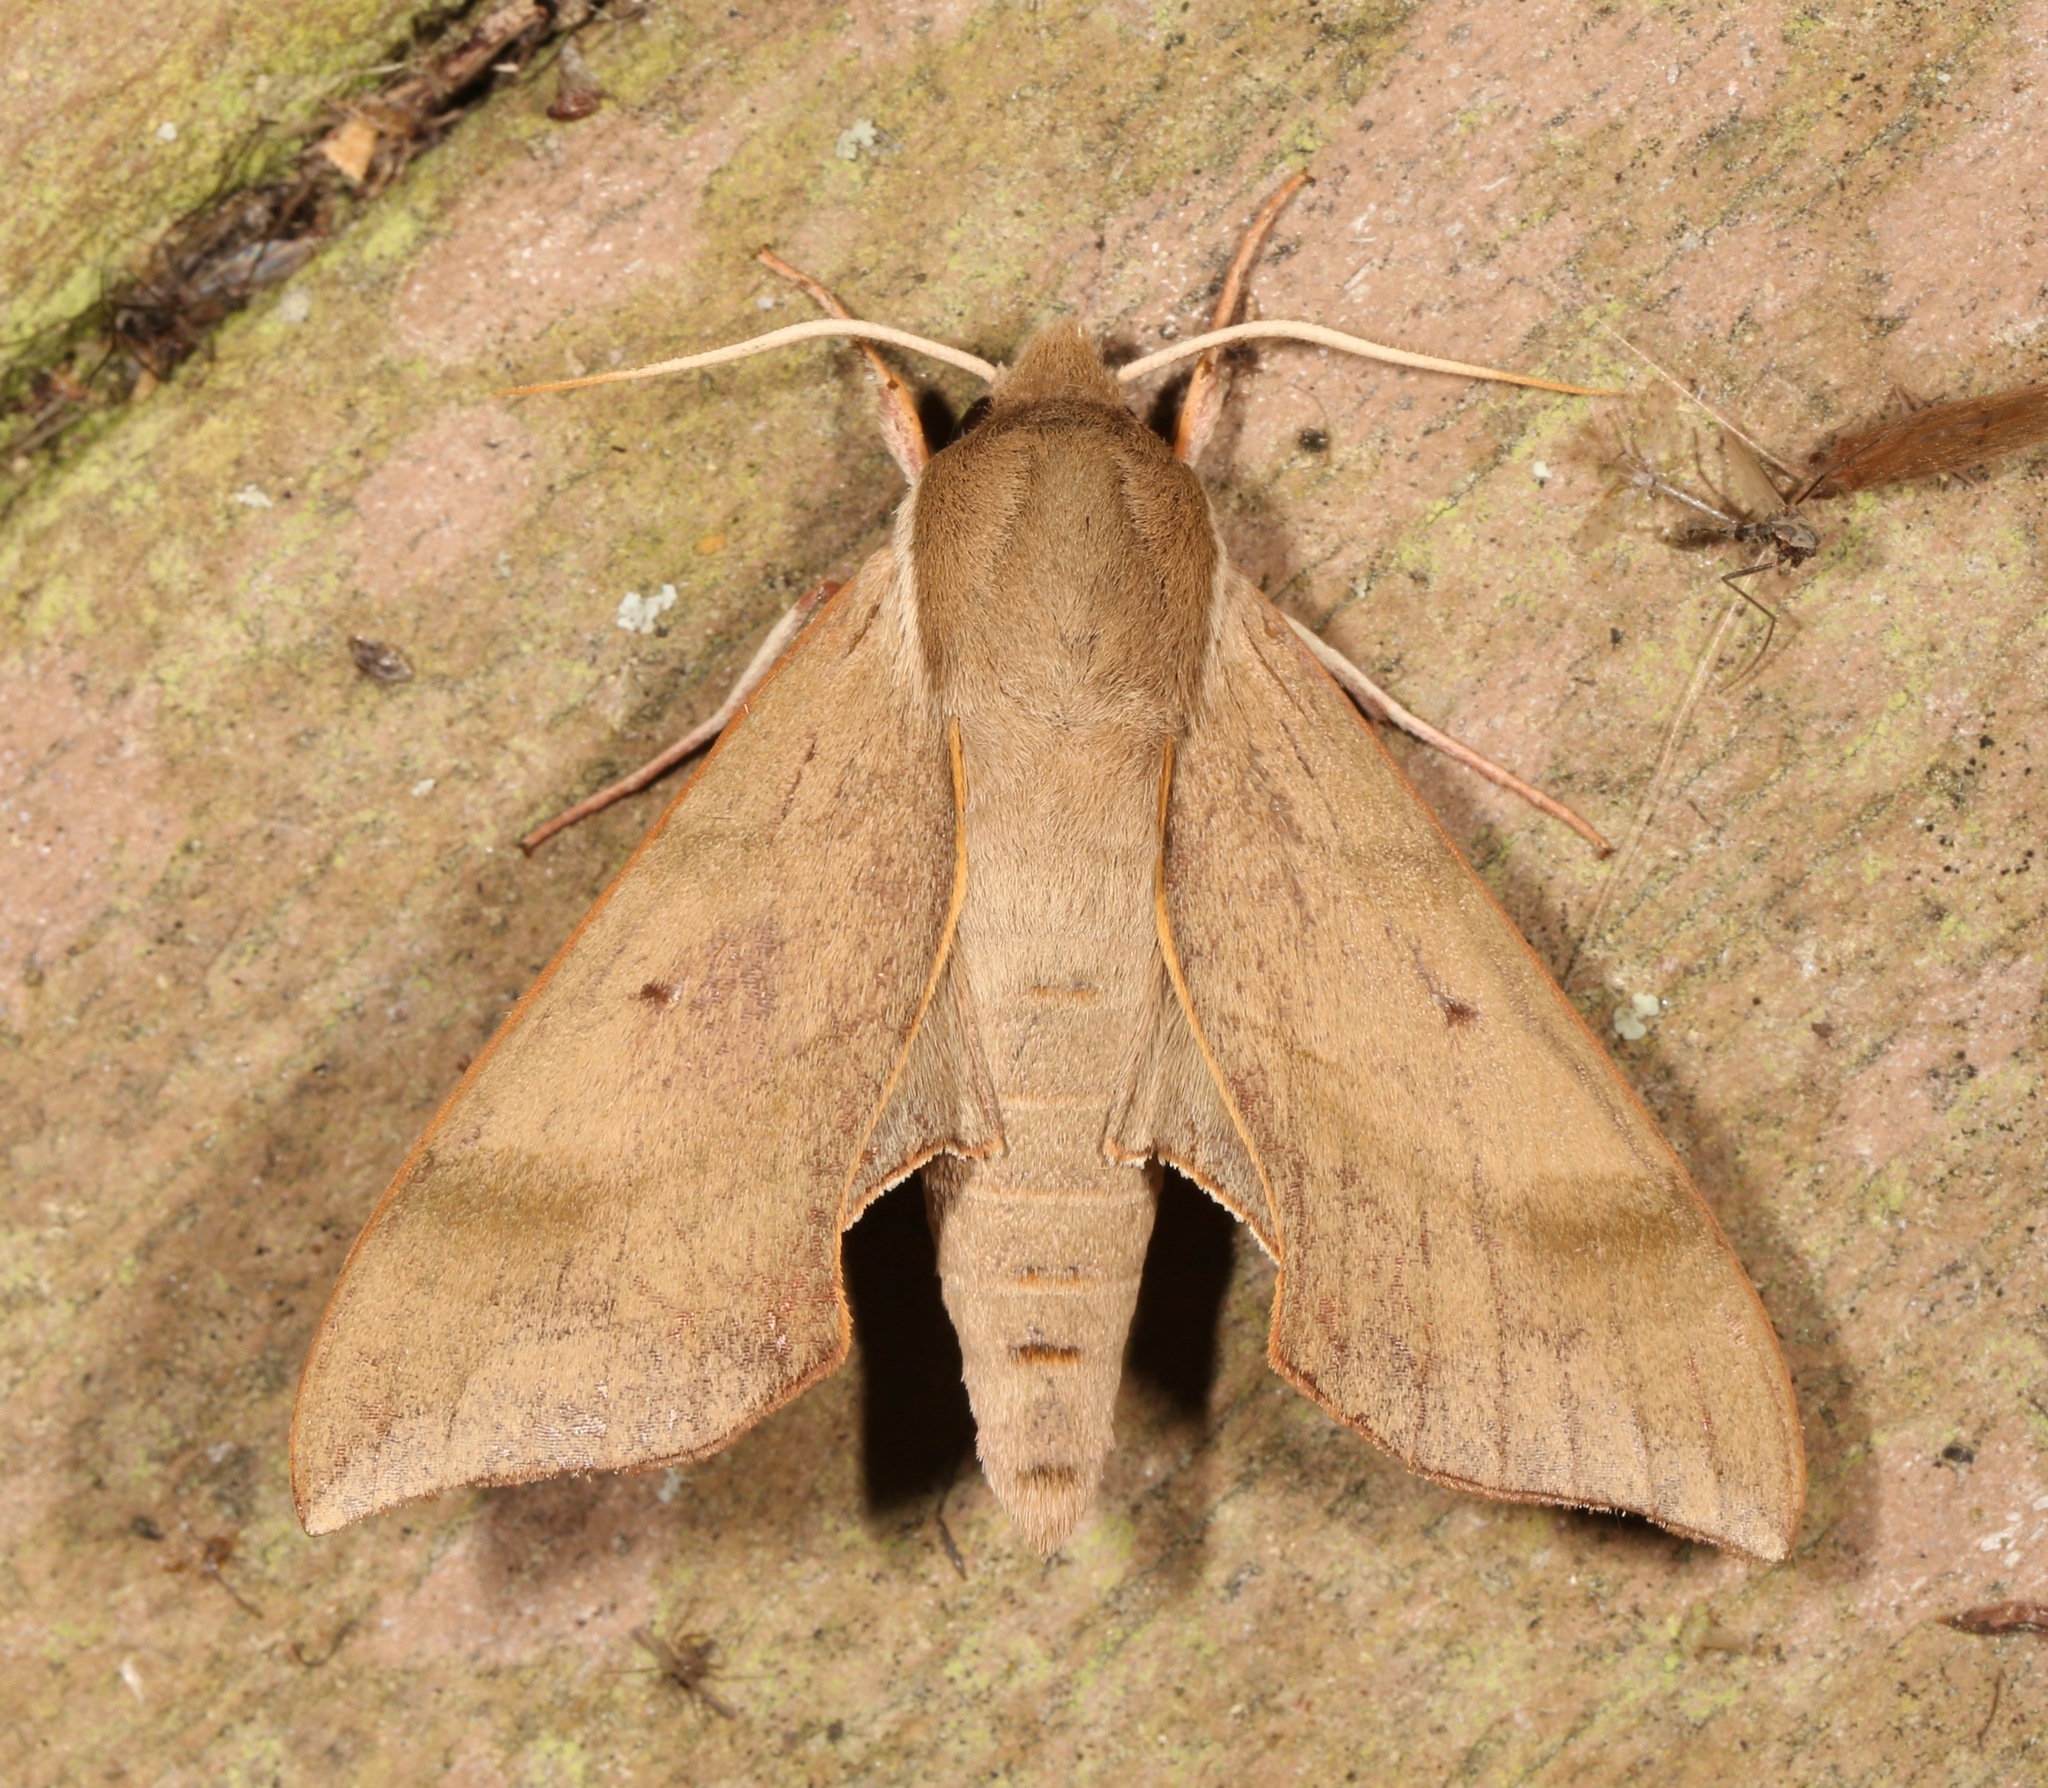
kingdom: Animalia
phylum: Arthropoda
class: Insecta
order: Lepidoptera
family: Sphingidae
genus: Darapsa
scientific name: Darapsa myron
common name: Hog sphinx
